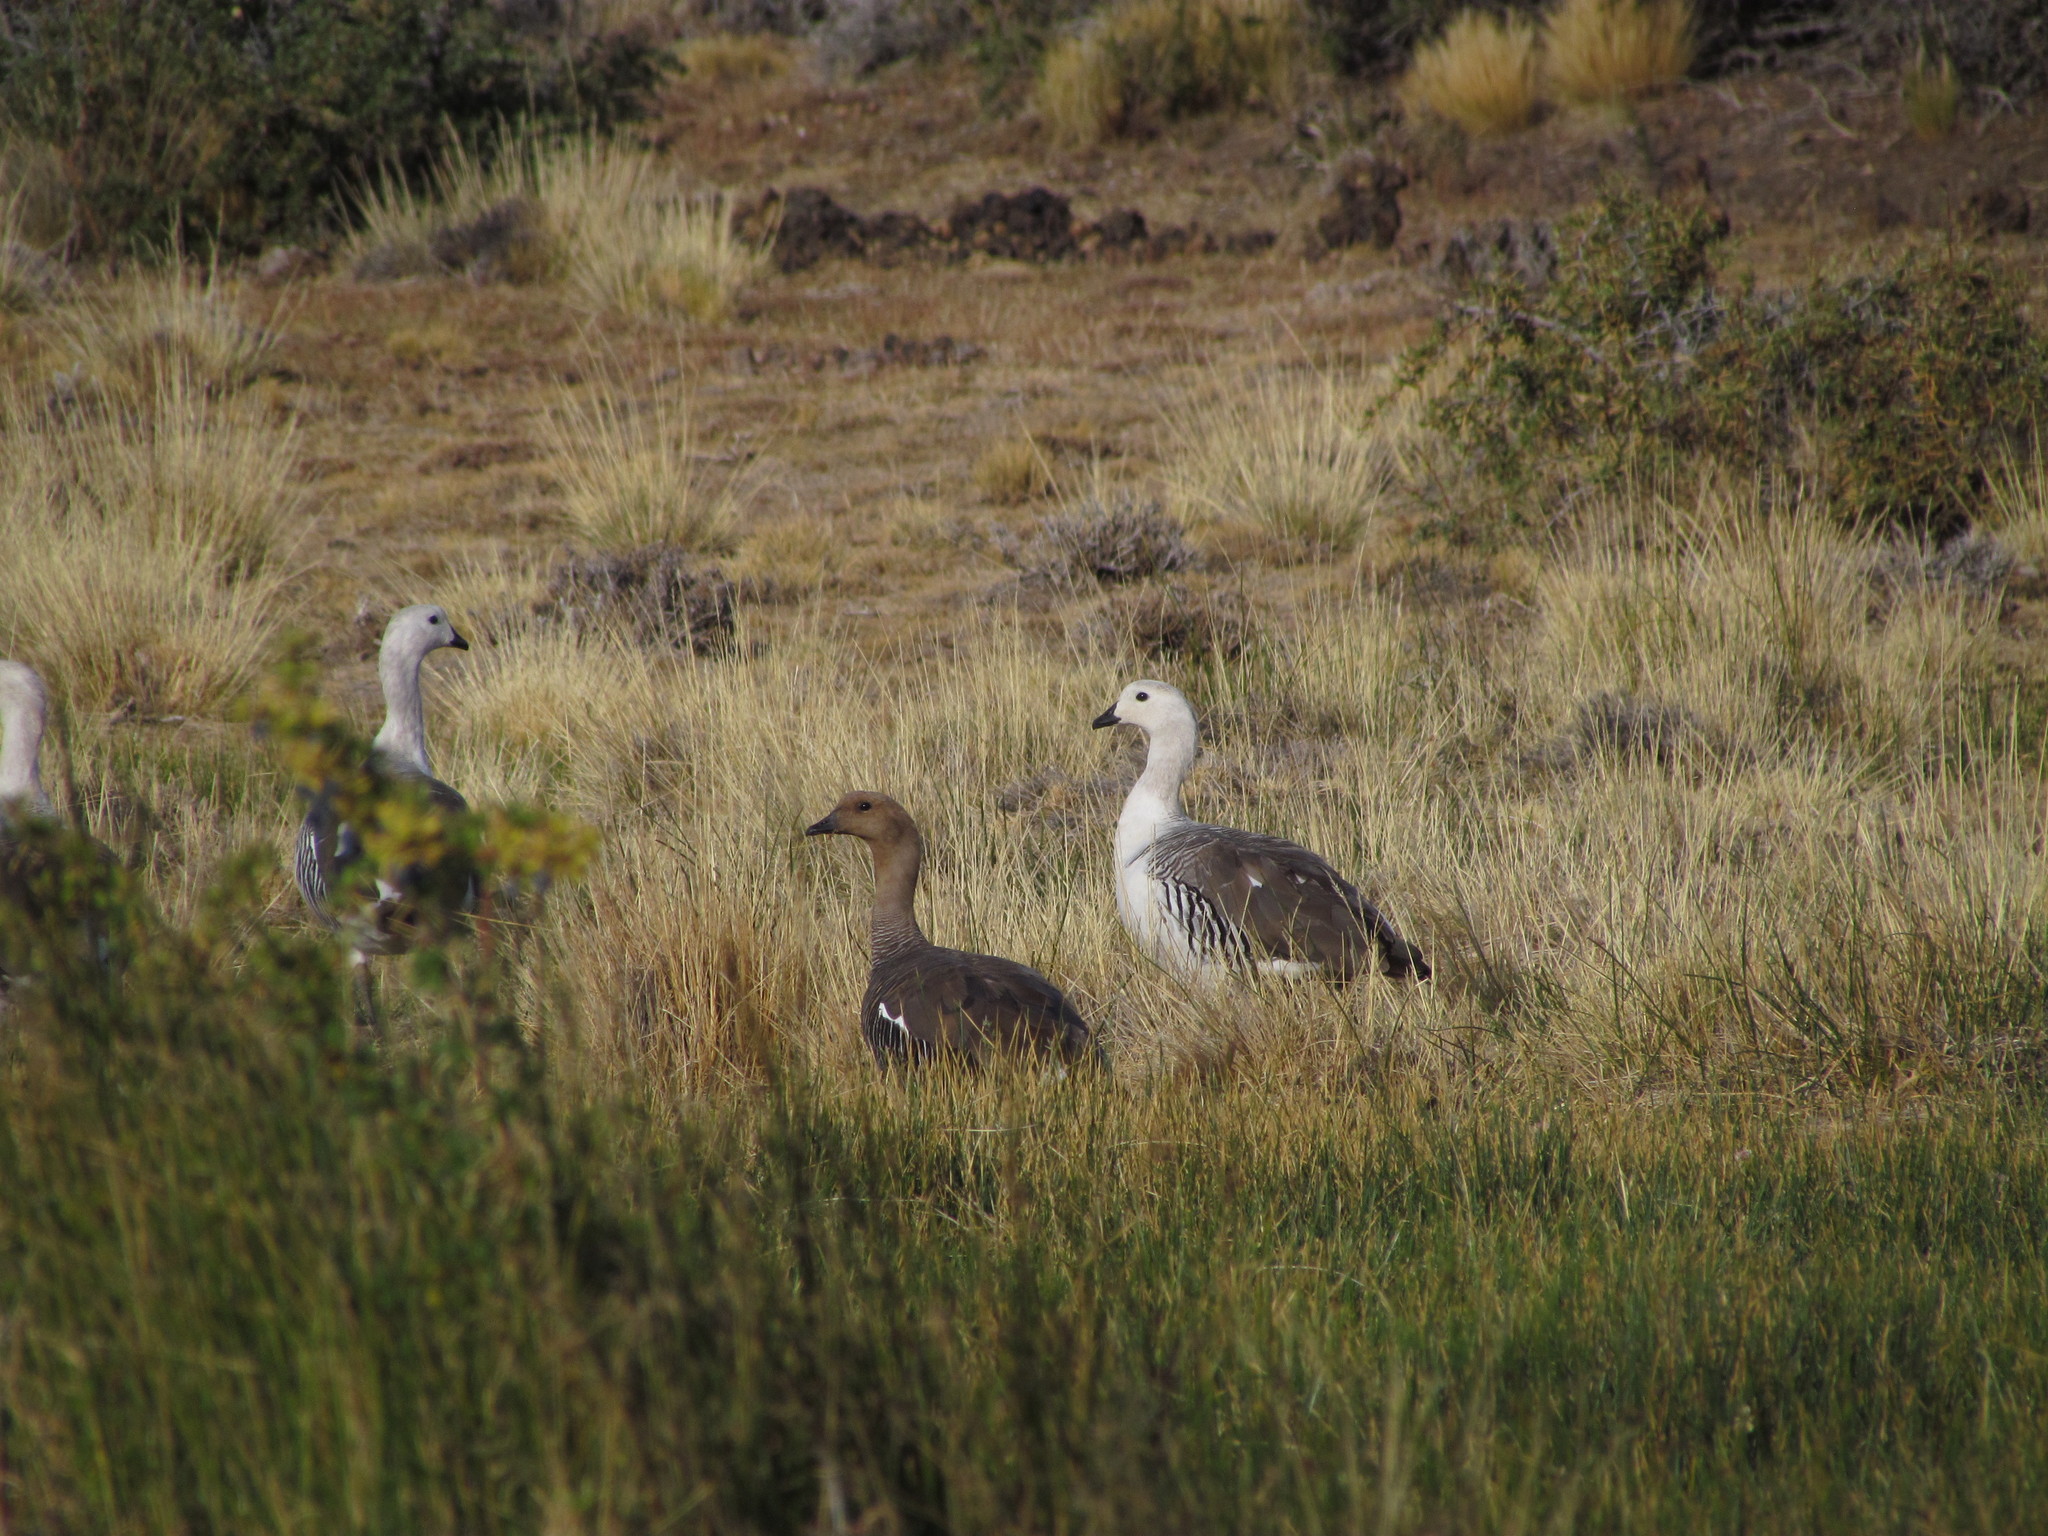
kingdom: Animalia
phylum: Chordata
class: Aves
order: Anseriformes
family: Anatidae
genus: Chloephaga
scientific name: Chloephaga picta
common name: Upland goose
